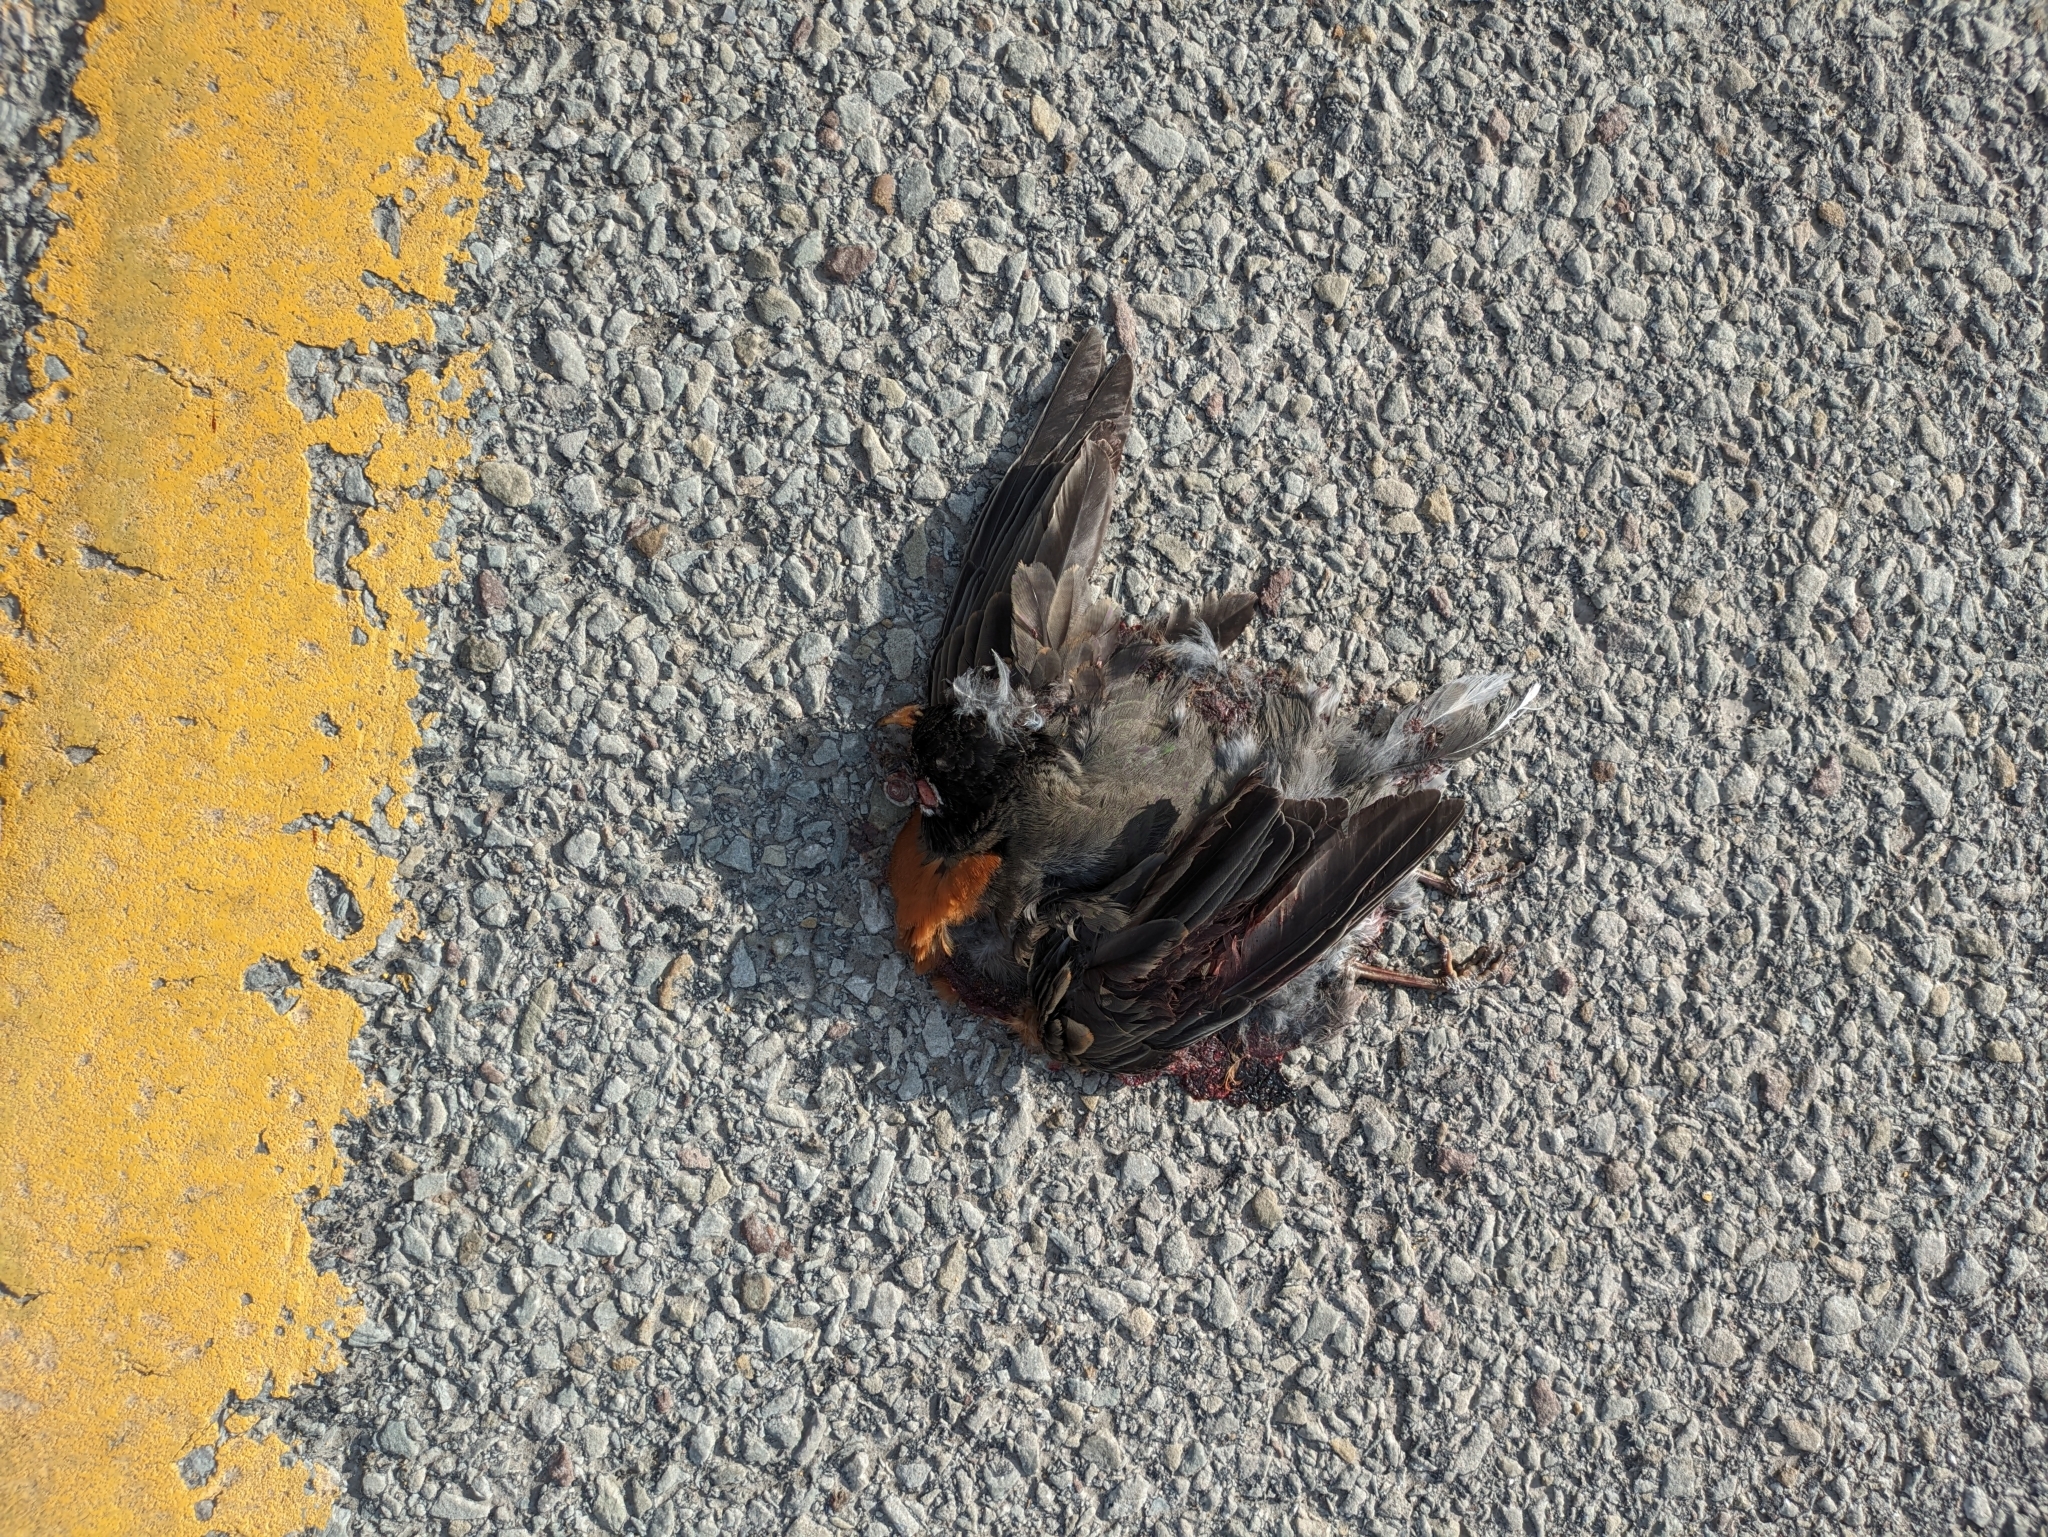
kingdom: Animalia
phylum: Chordata
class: Aves
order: Passeriformes
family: Turdidae
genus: Turdus
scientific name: Turdus migratorius
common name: American robin
